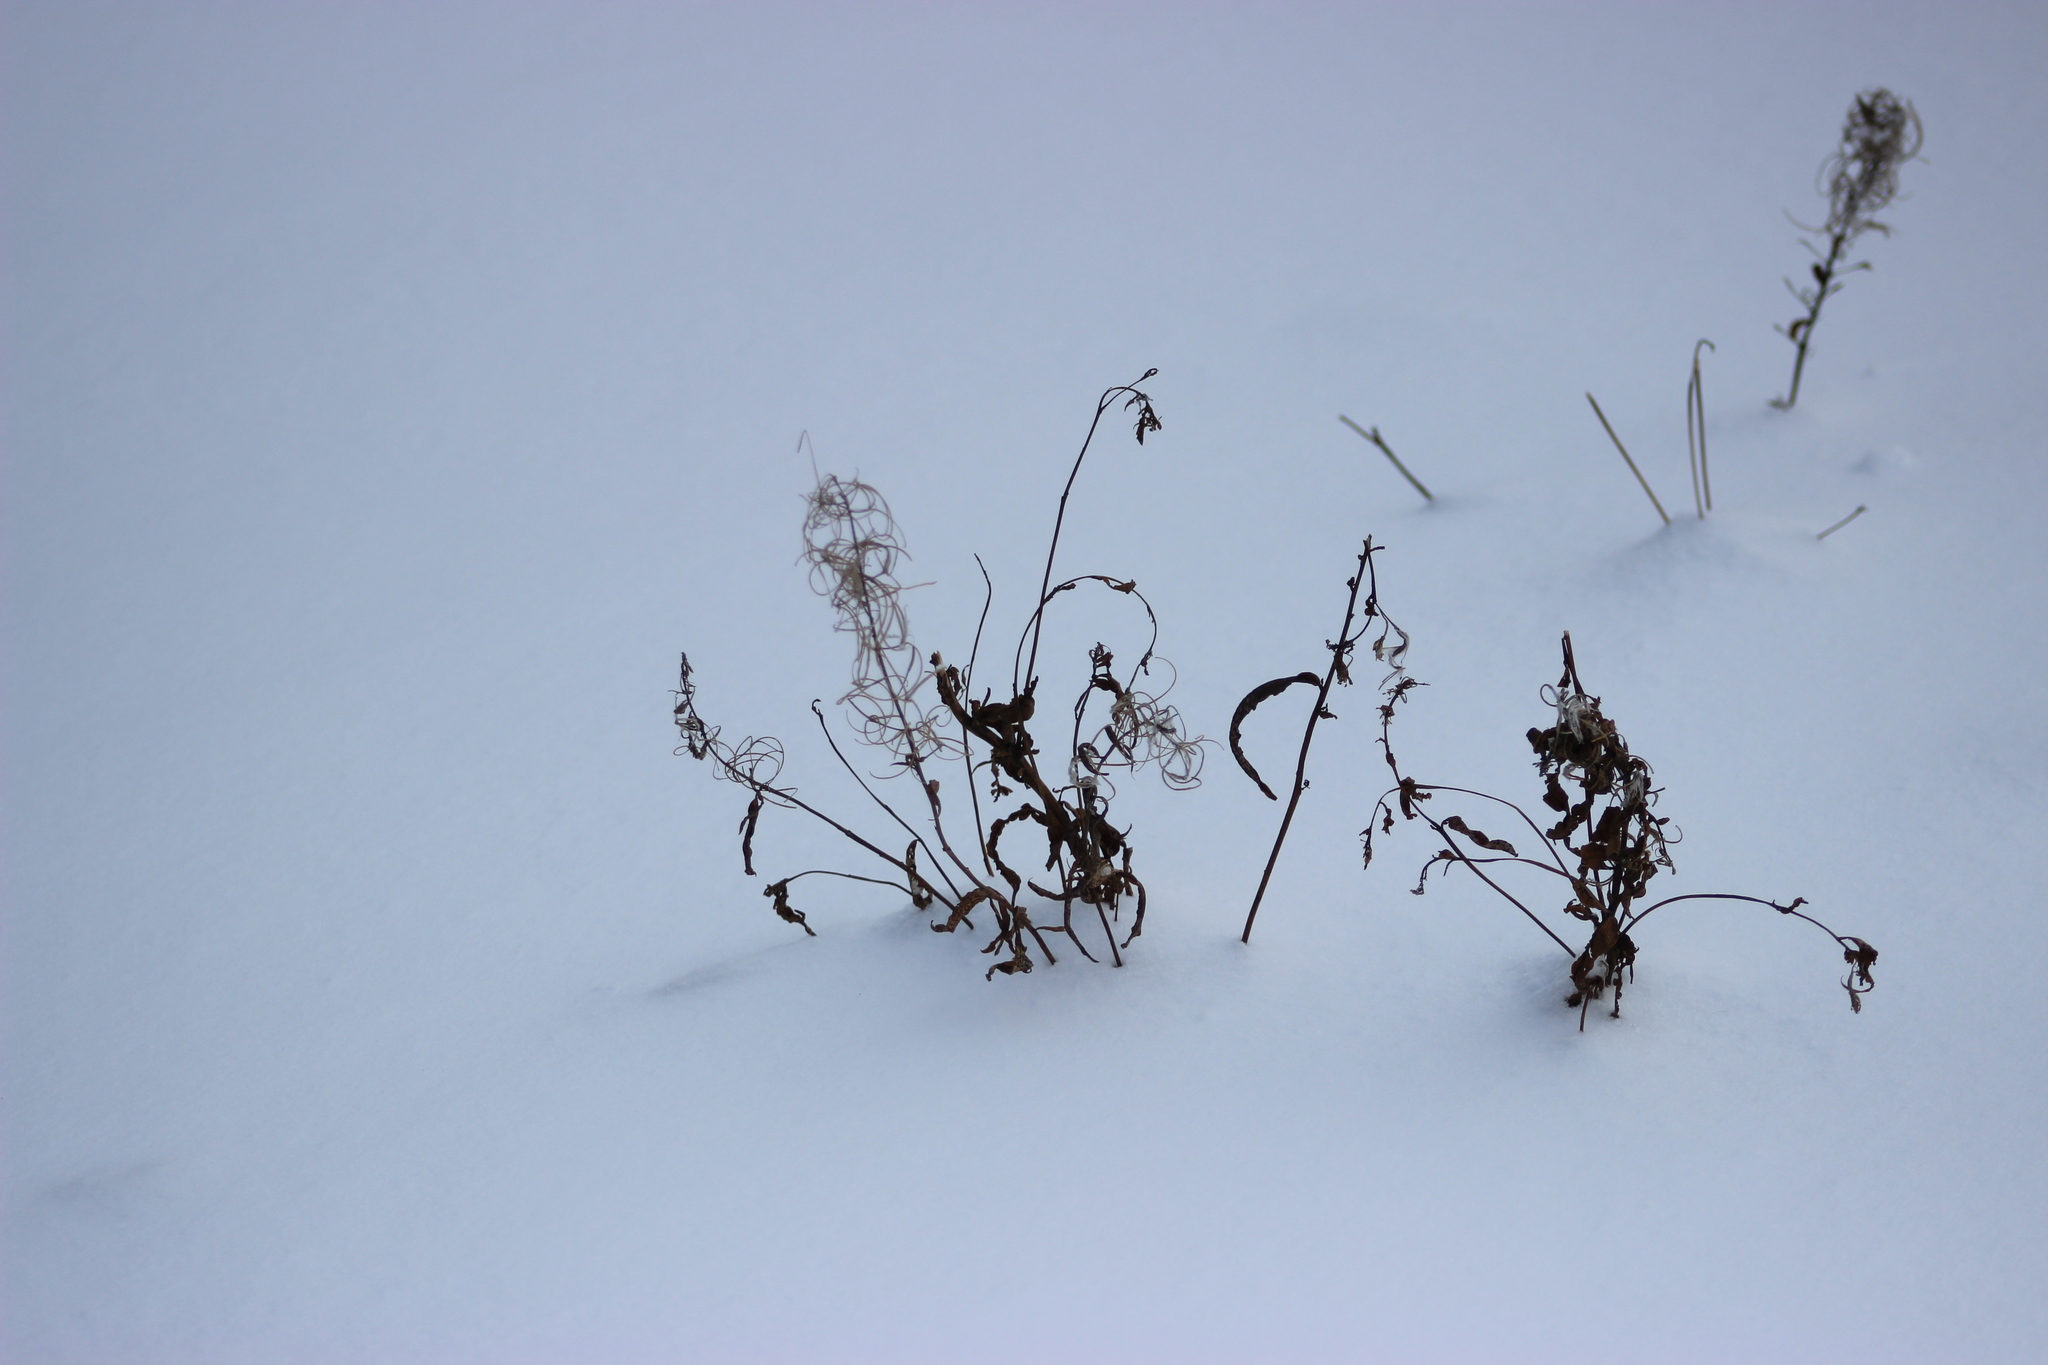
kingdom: Plantae
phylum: Tracheophyta
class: Magnoliopsida
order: Myrtales
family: Onagraceae
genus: Chamaenerion
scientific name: Chamaenerion angustifolium
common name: Fireweed
